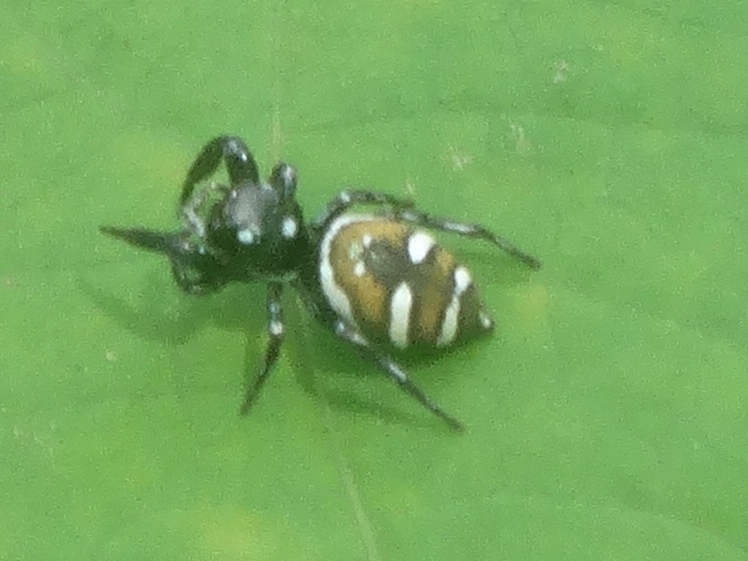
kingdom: Animalia
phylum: Arthropoda
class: Arachnida
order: Araneae
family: Salticidae
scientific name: Salticidae
